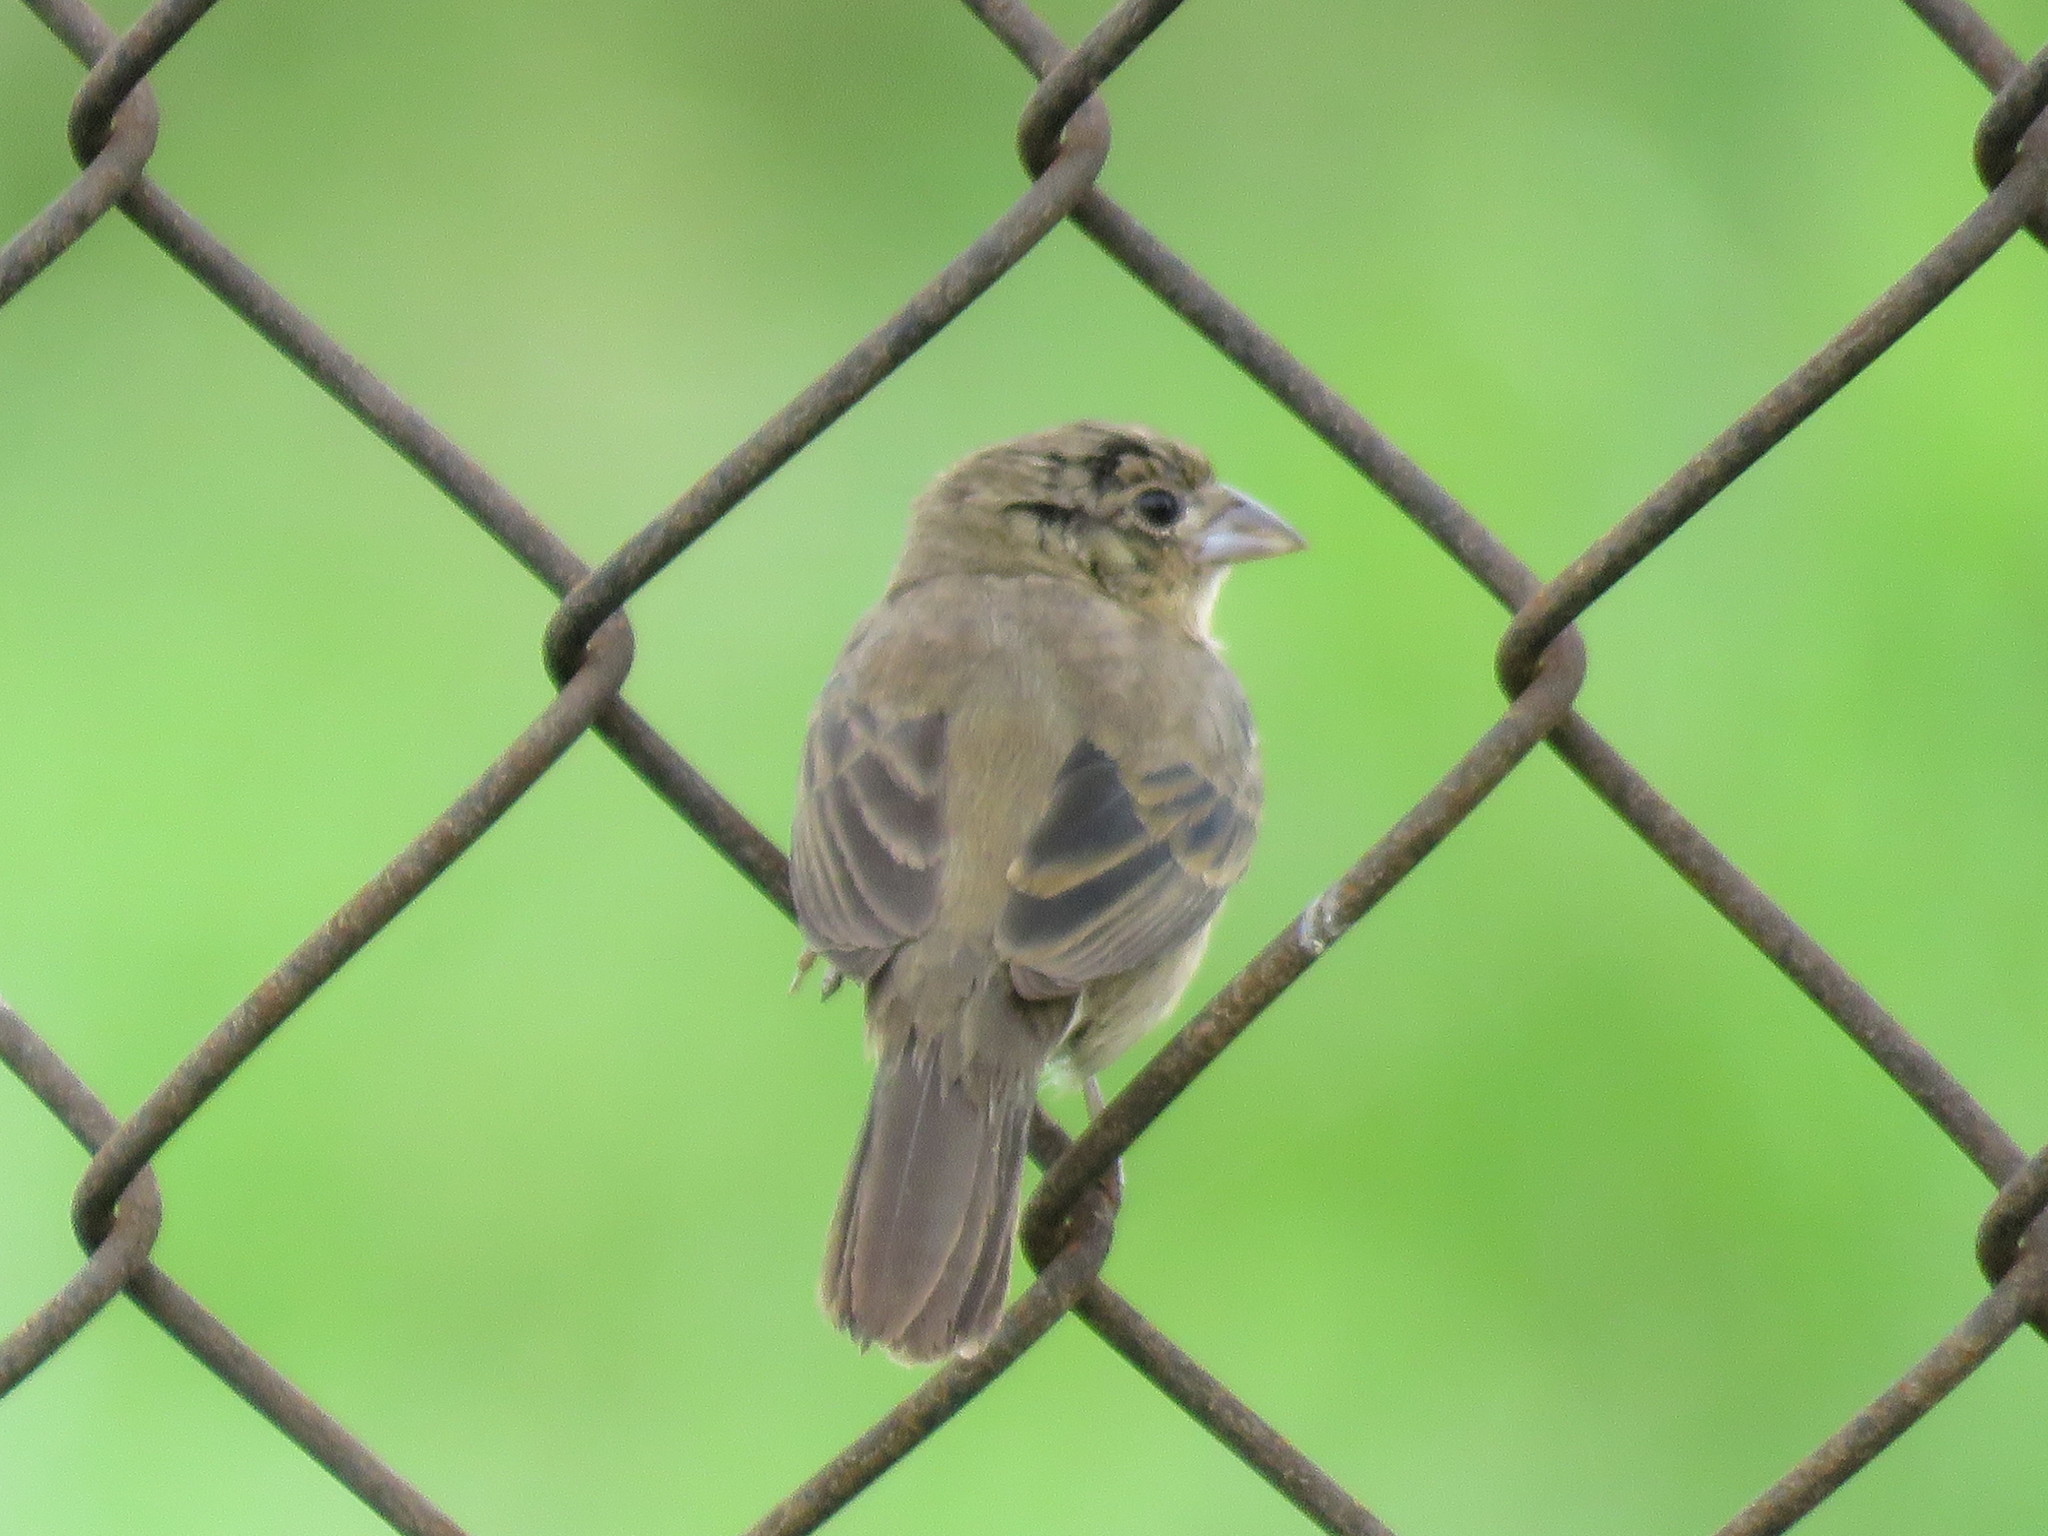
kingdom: Animalia
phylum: Chordata
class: Aves
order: Passeriformes
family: Thraupidae
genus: Volatinia
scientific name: Volatinia jacarina
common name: Blue-black grassquit
